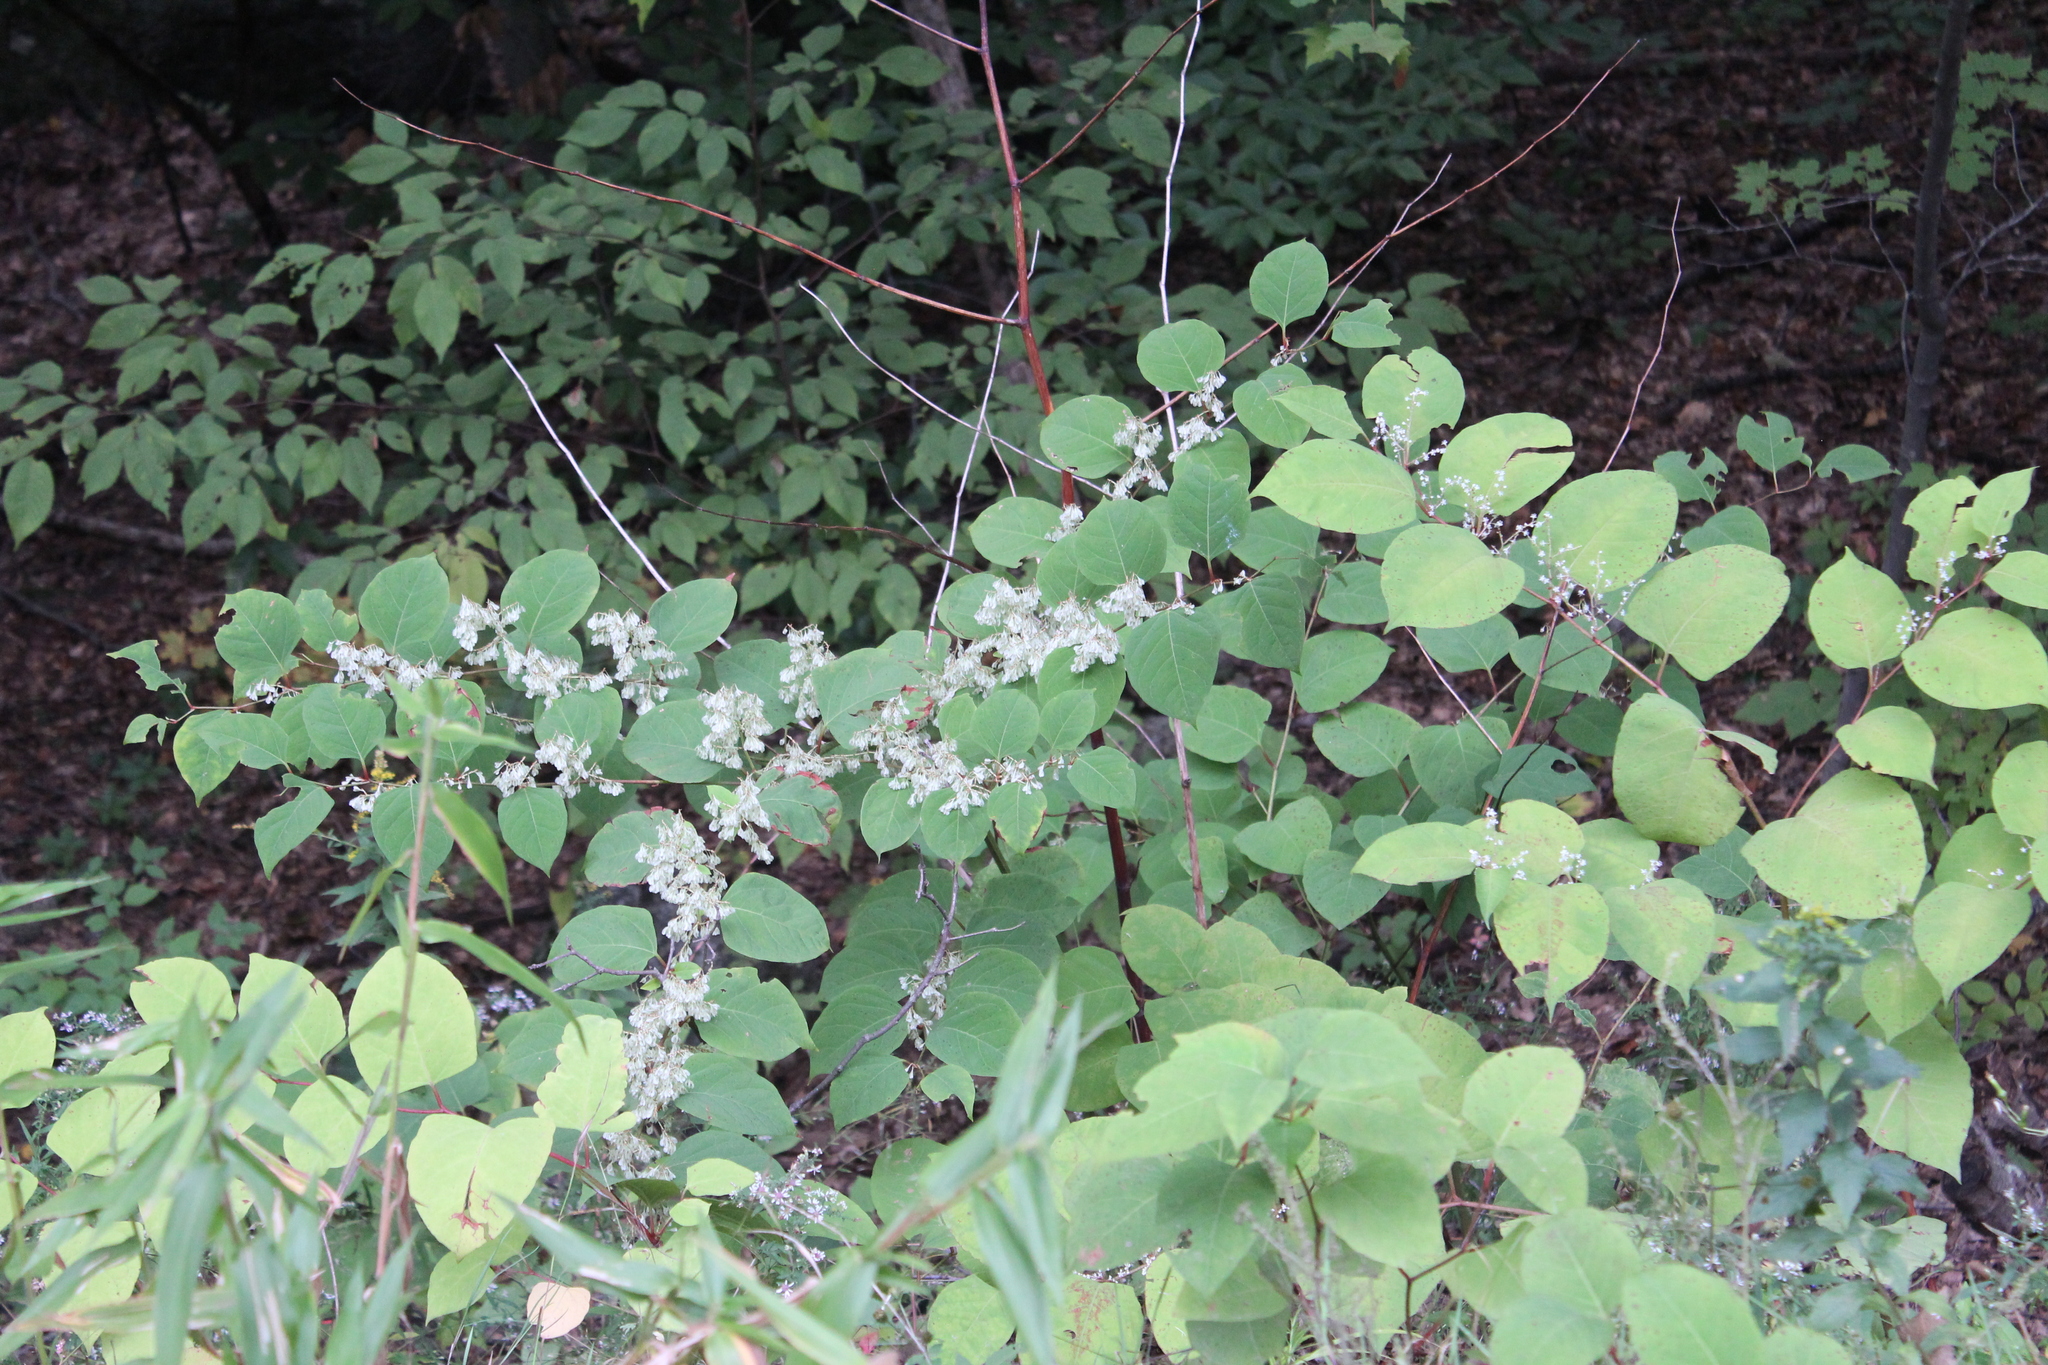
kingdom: Plantae
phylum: Tracheophyta
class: Magnoliopsida
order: Caryophyllales
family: Polygonaceae
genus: Reynoutria
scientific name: Reynoutria japonica
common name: Japanese knotweed
